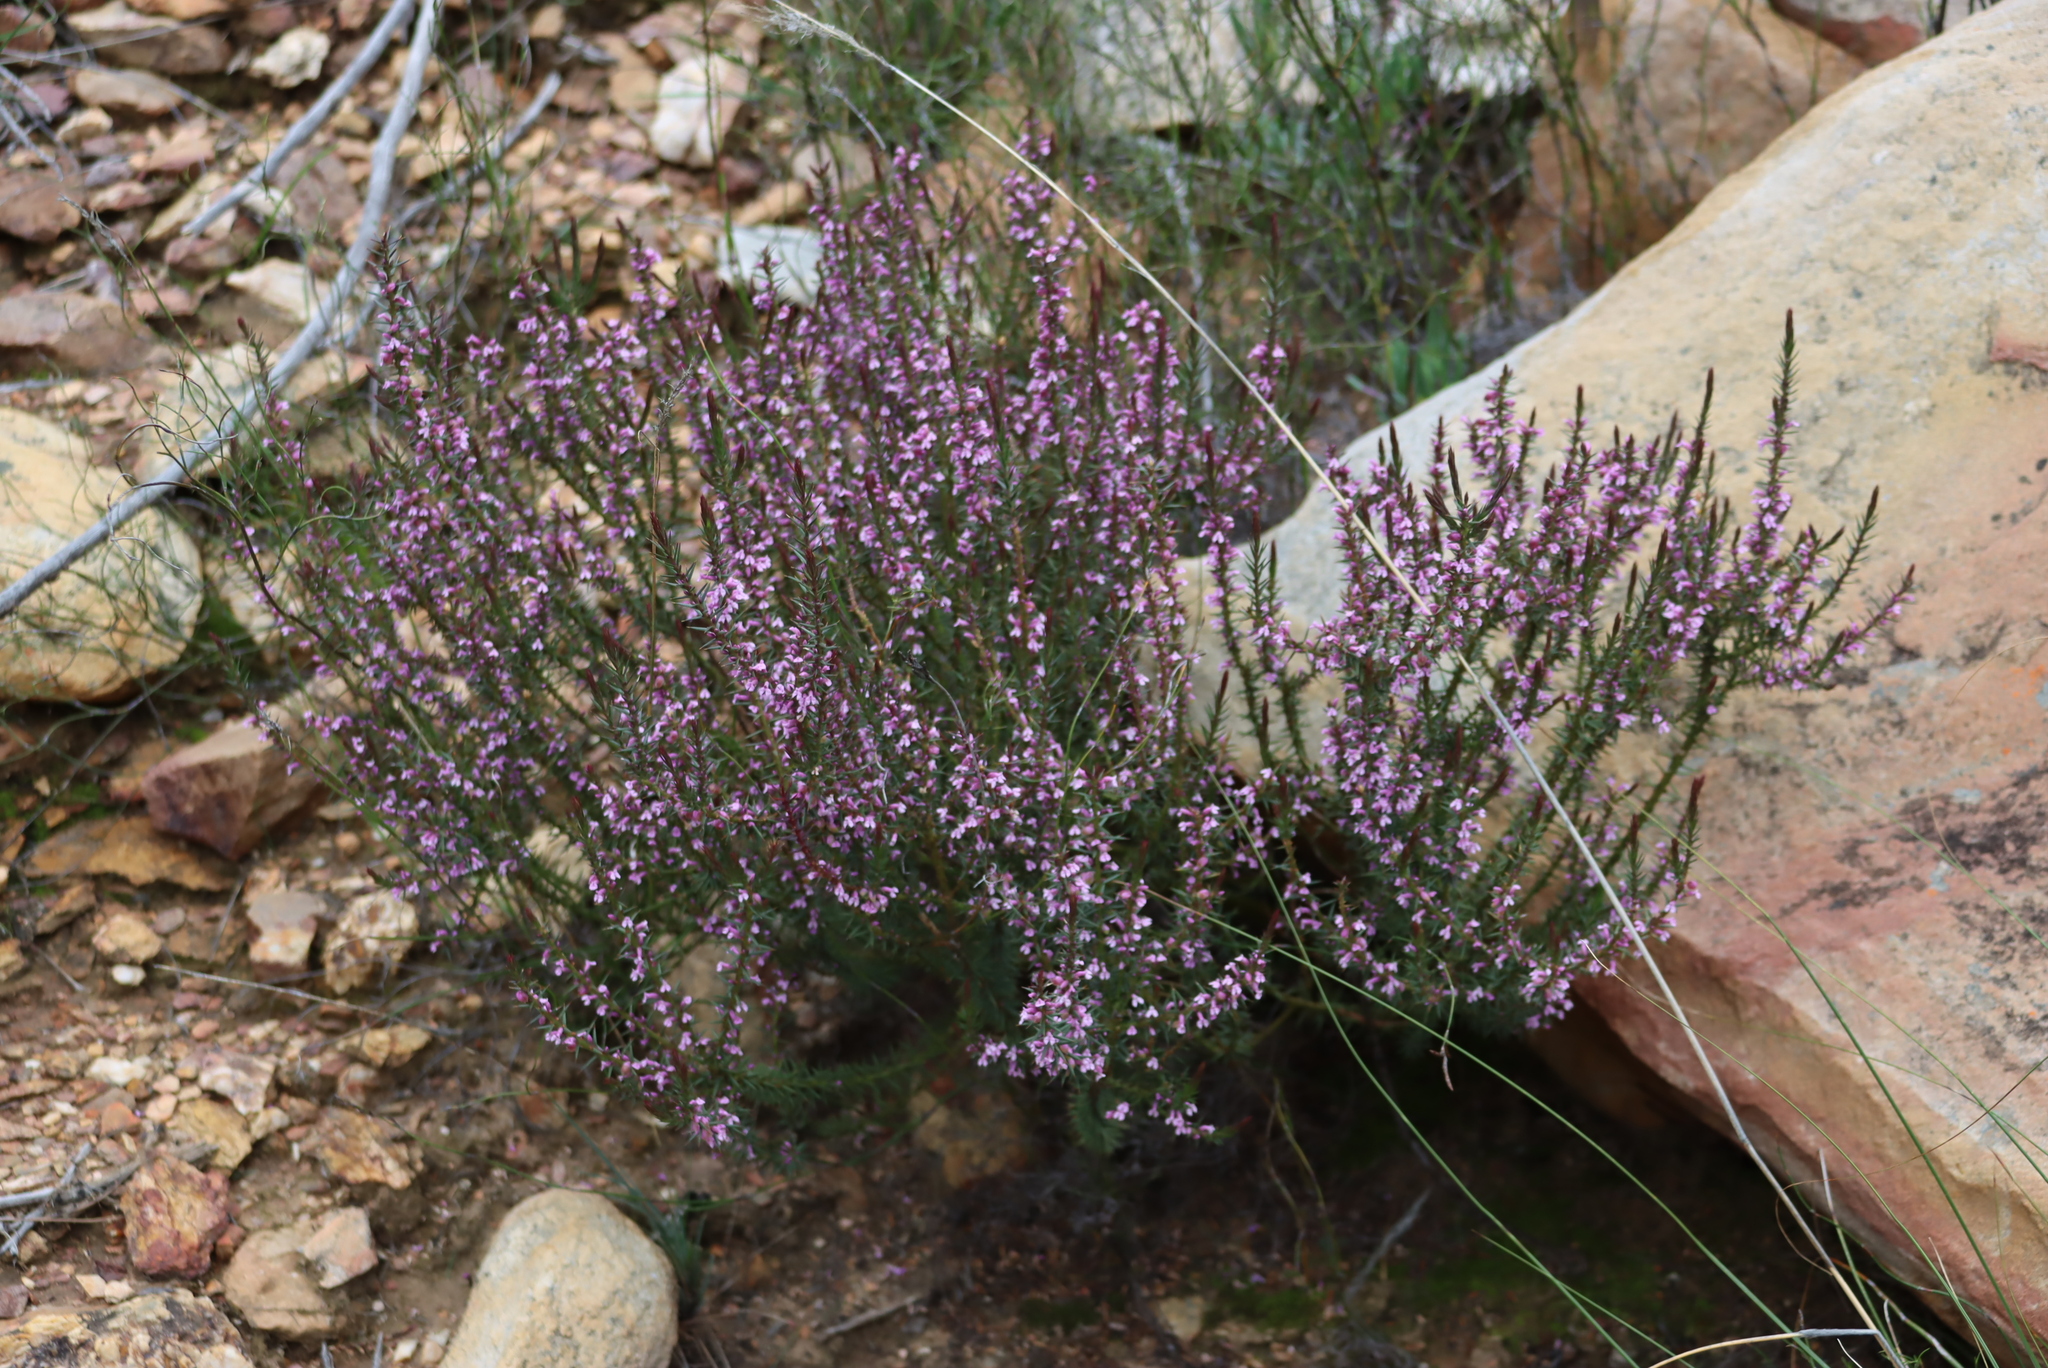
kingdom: Plantae
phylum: Tracheophyta
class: Magnoliopsida
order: Fabales
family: Polygalaceae
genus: Muraltia
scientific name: Muraltia juniperifolia
